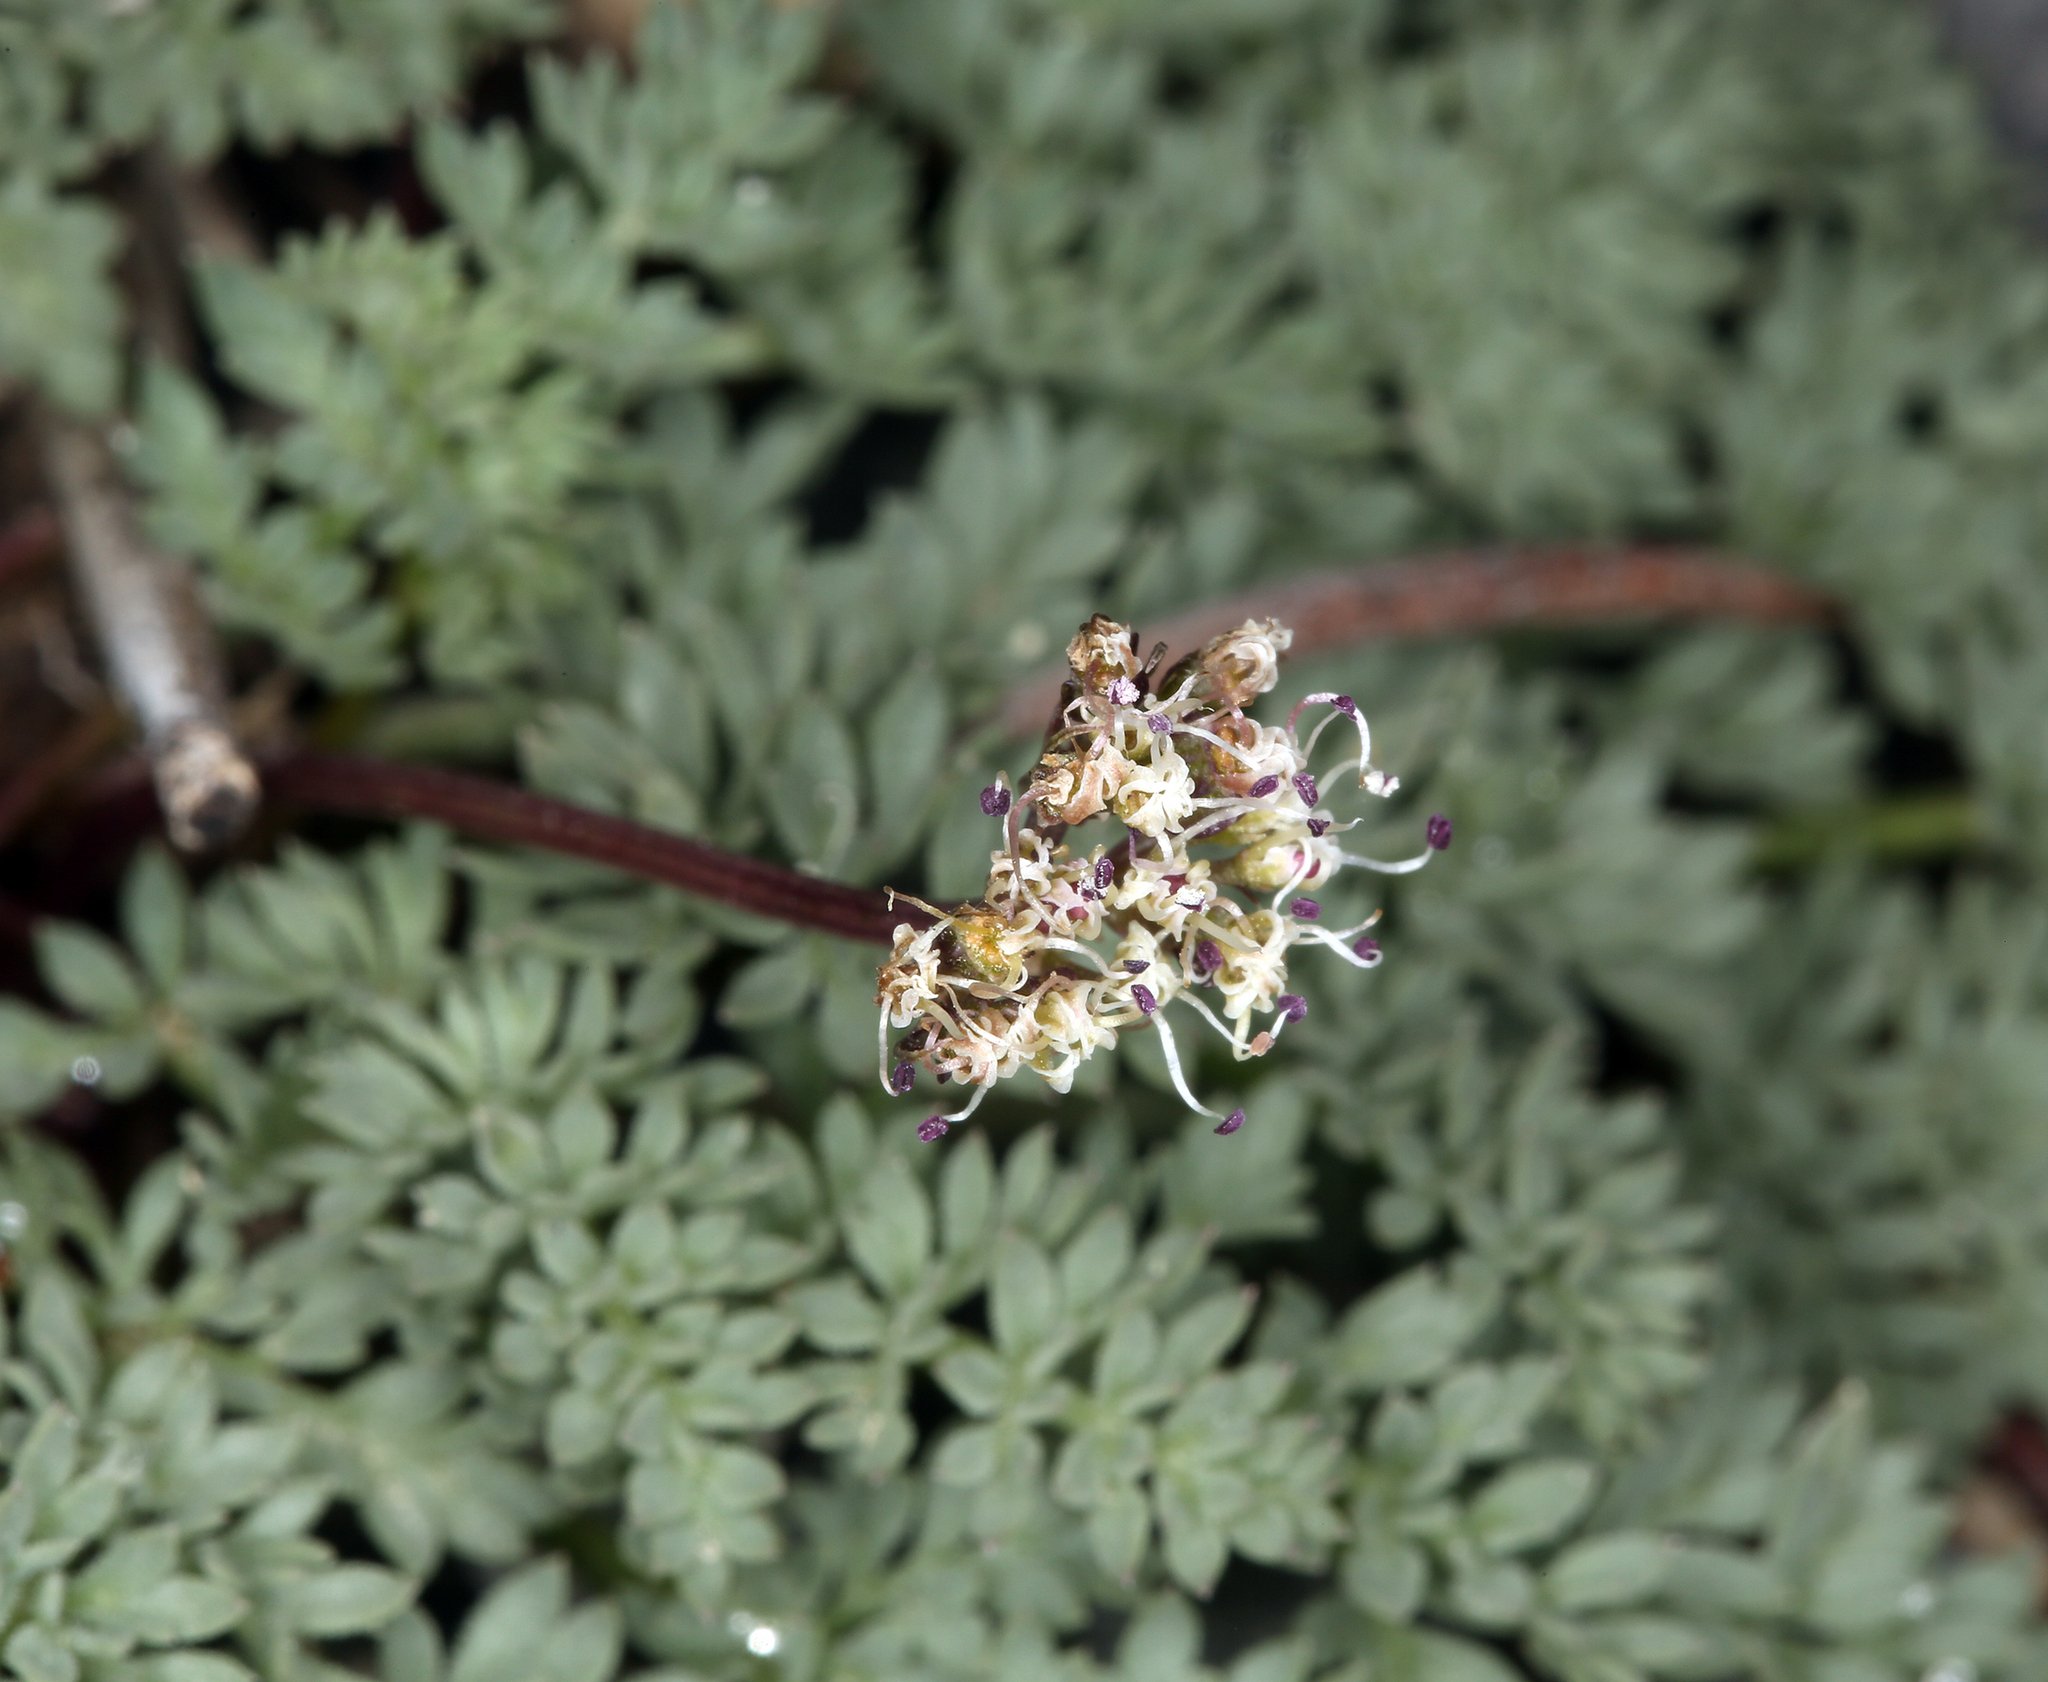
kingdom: Plantae
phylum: Tracheophyta
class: Magnoliopsida
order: Apiales
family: Apiaceae
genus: Aulospermum
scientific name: Aulospermum aboriginum
